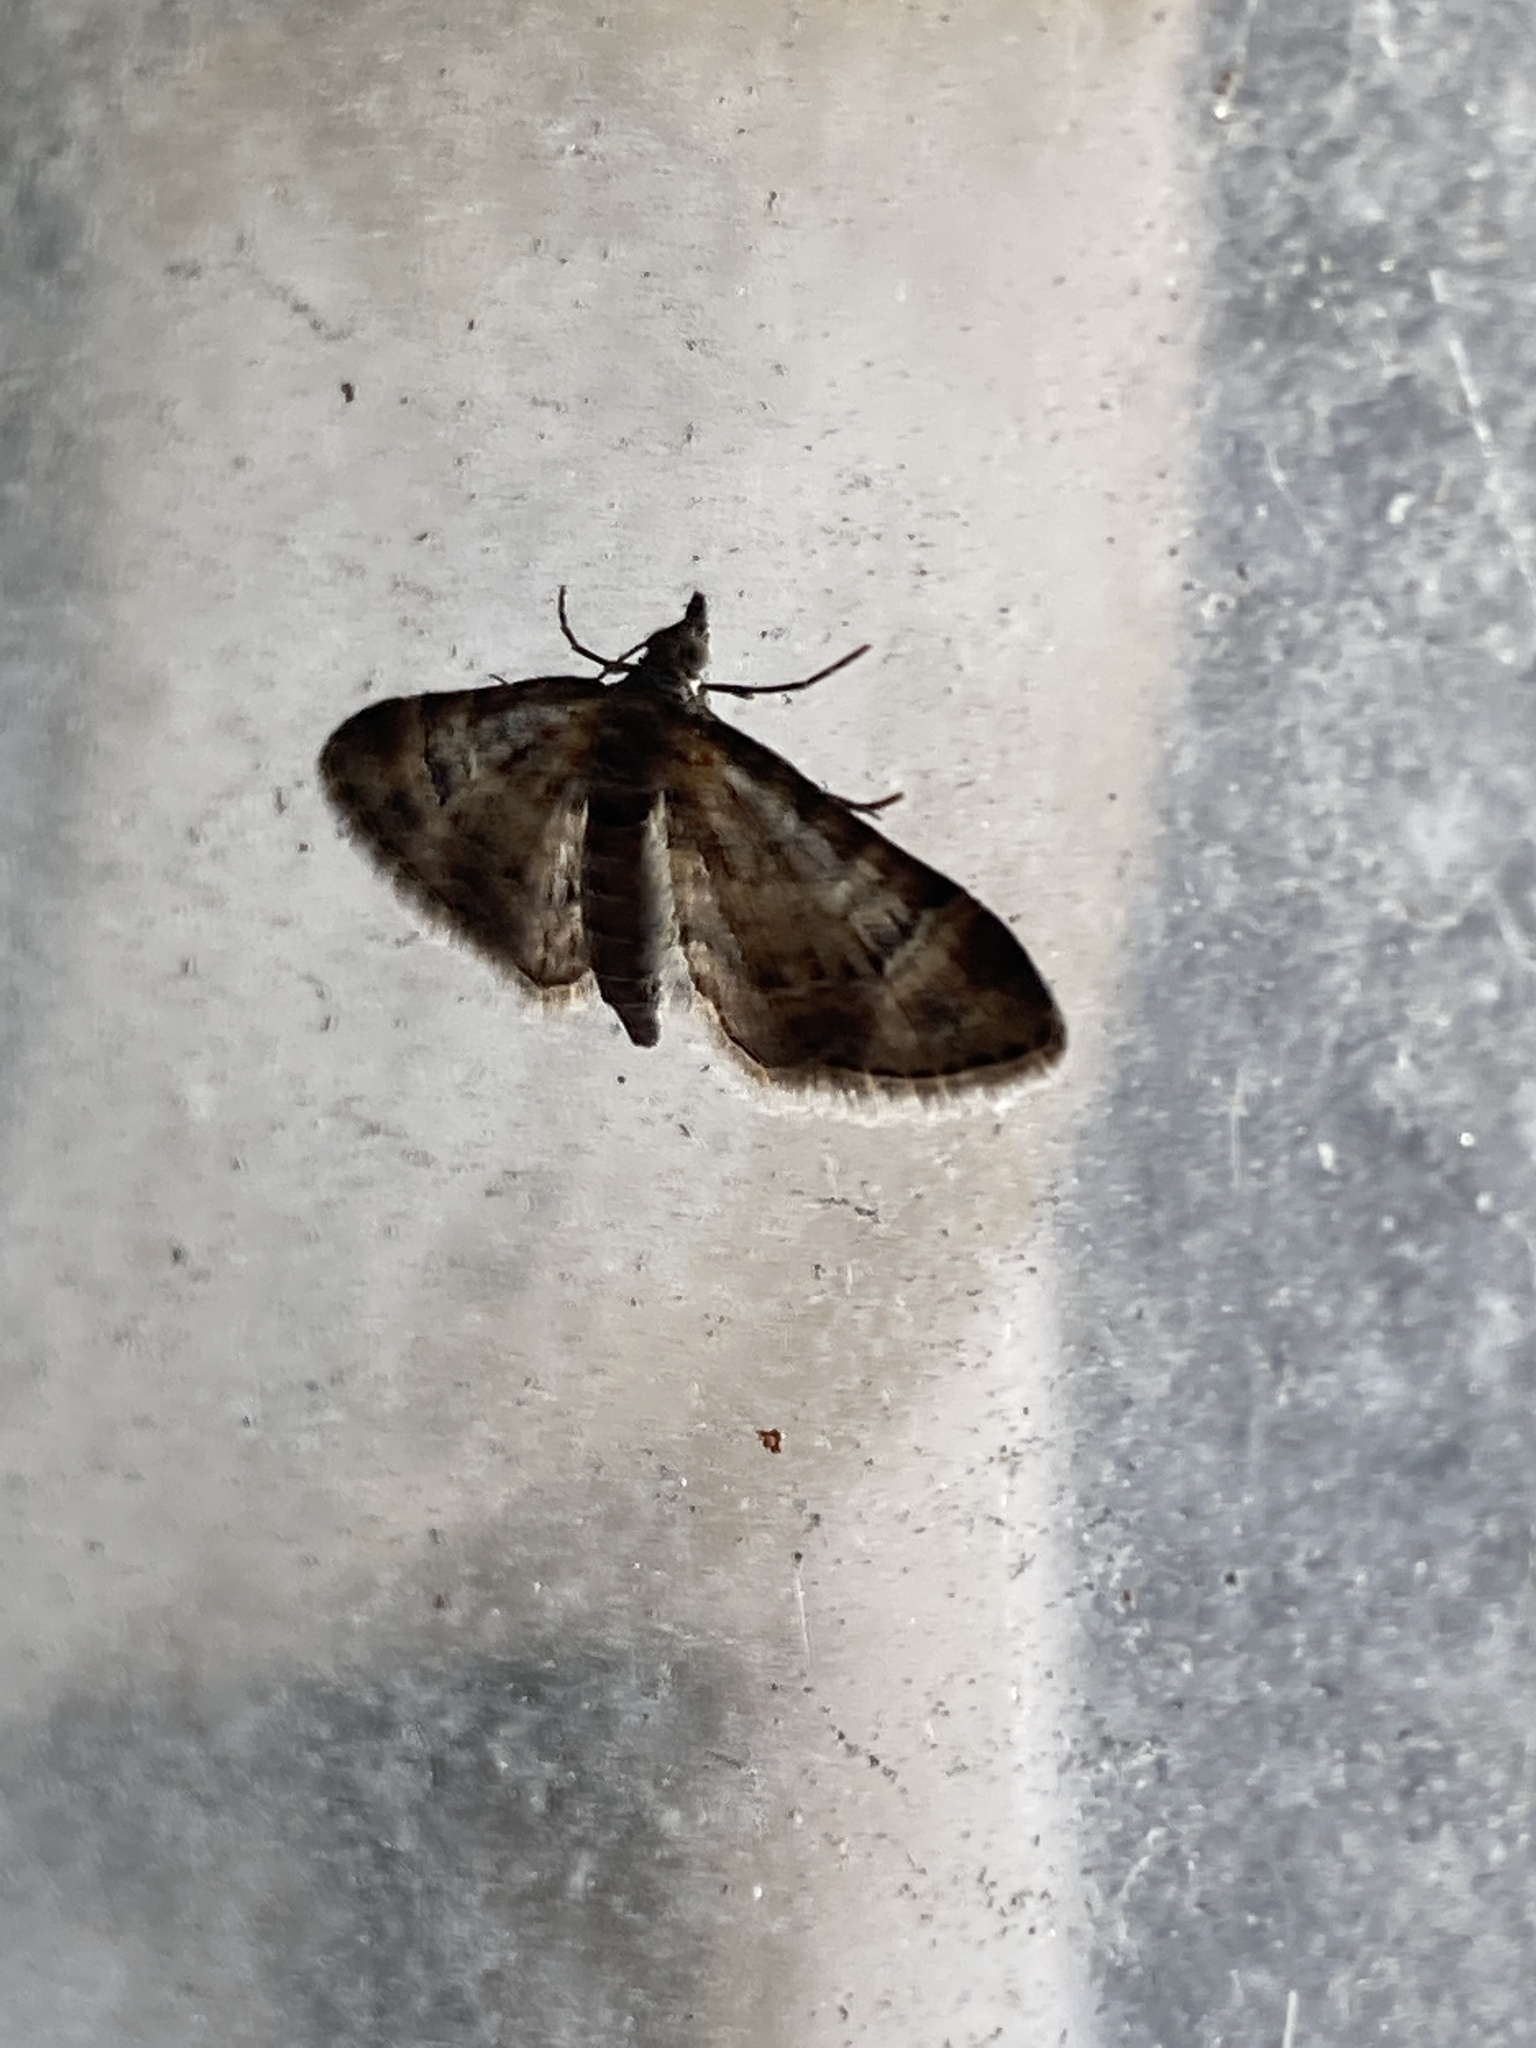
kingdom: Animalia
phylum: Arthropoda
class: Insecta
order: Lepidoptera
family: Geometridae
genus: Gymnoscelis
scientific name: Gymnoscelis rufifasciata
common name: Double-striped pug
